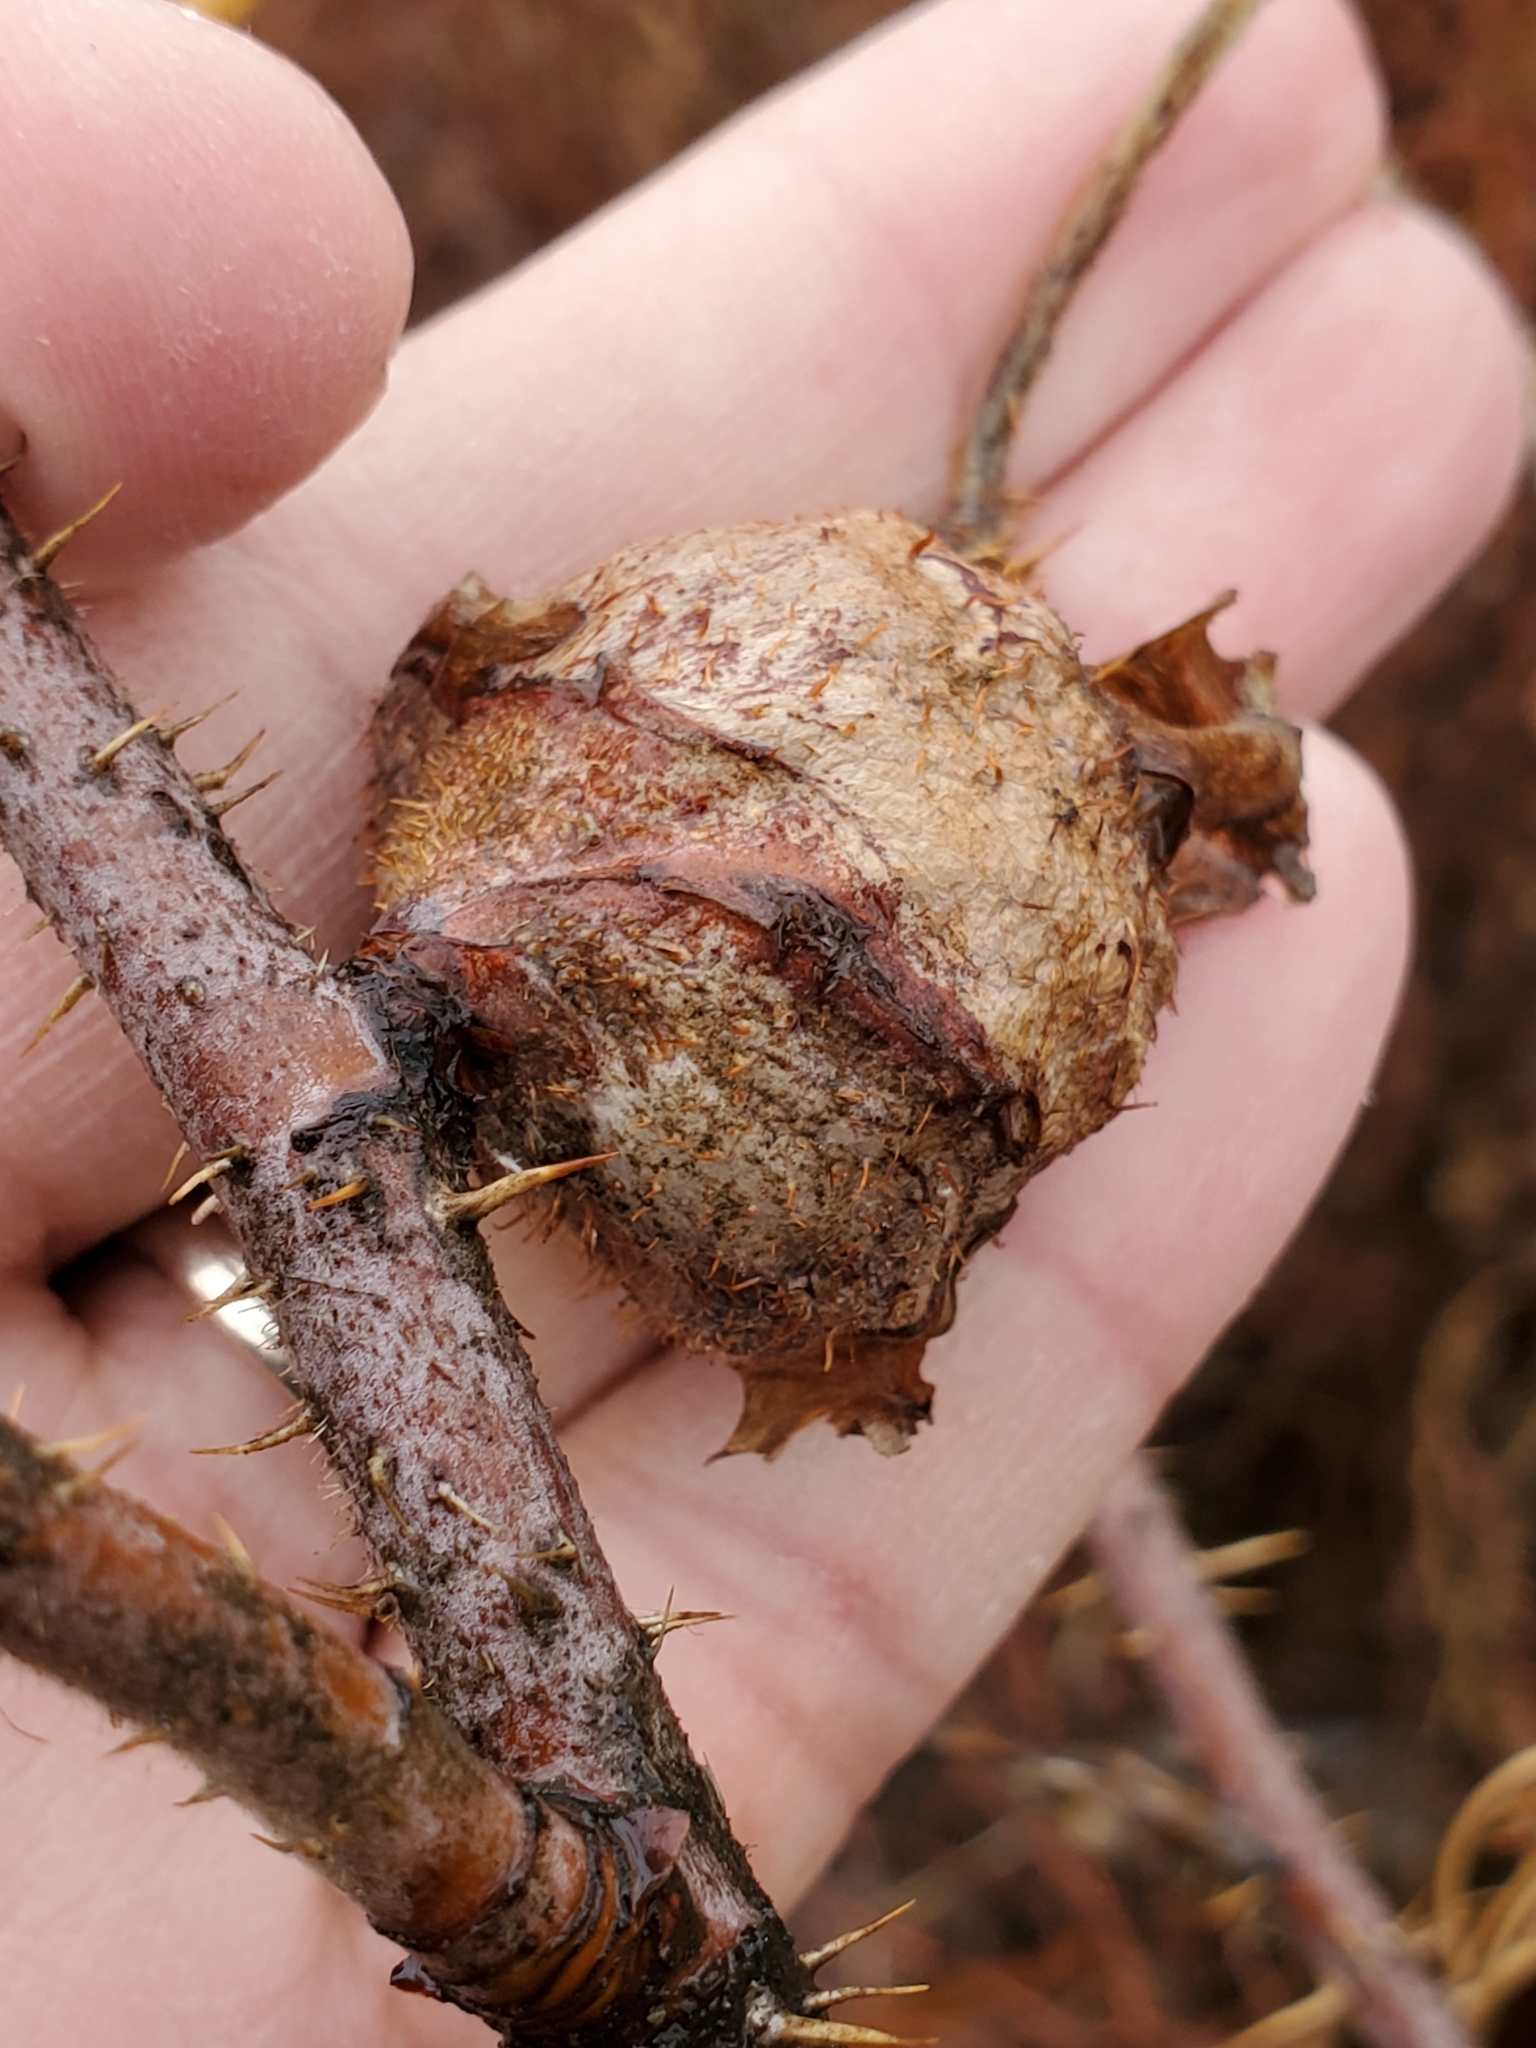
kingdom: Animalia
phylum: Arthropoda
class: Insecta
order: Hymenoptera
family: Cynipidae
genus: Diplolepis
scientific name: Diplolepis spinosa
